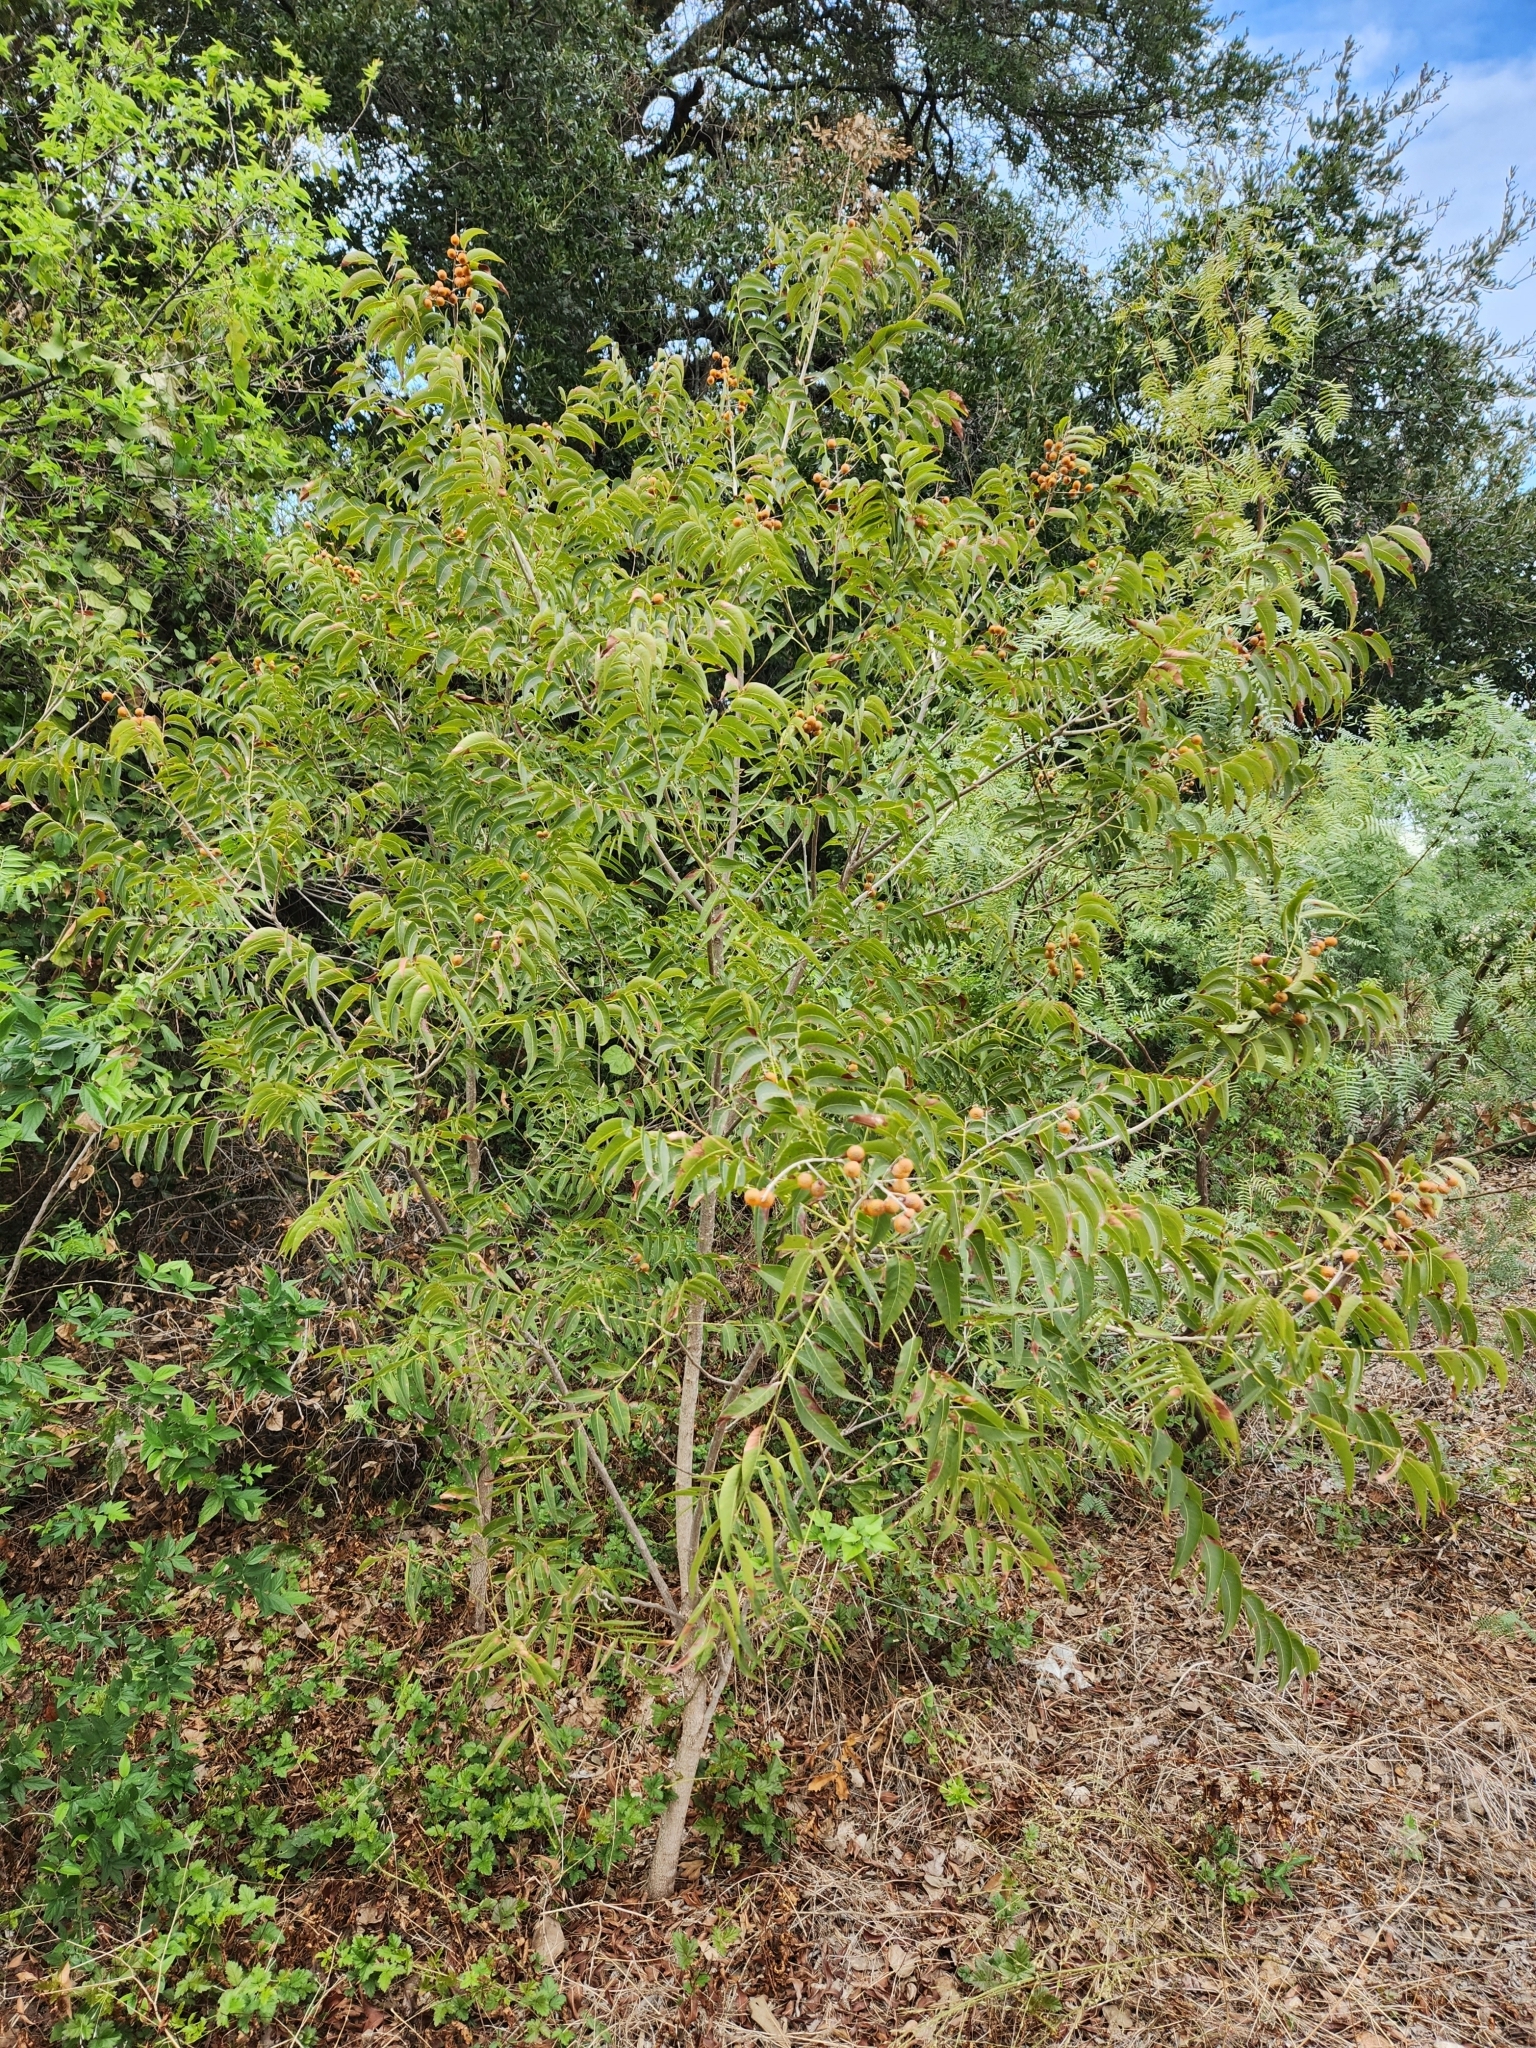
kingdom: Plantae
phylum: Tracheophyta
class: Magnoliopsida
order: Sapindales
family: Sapindaceae
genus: Sapindus
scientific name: Sapindus drummondii
